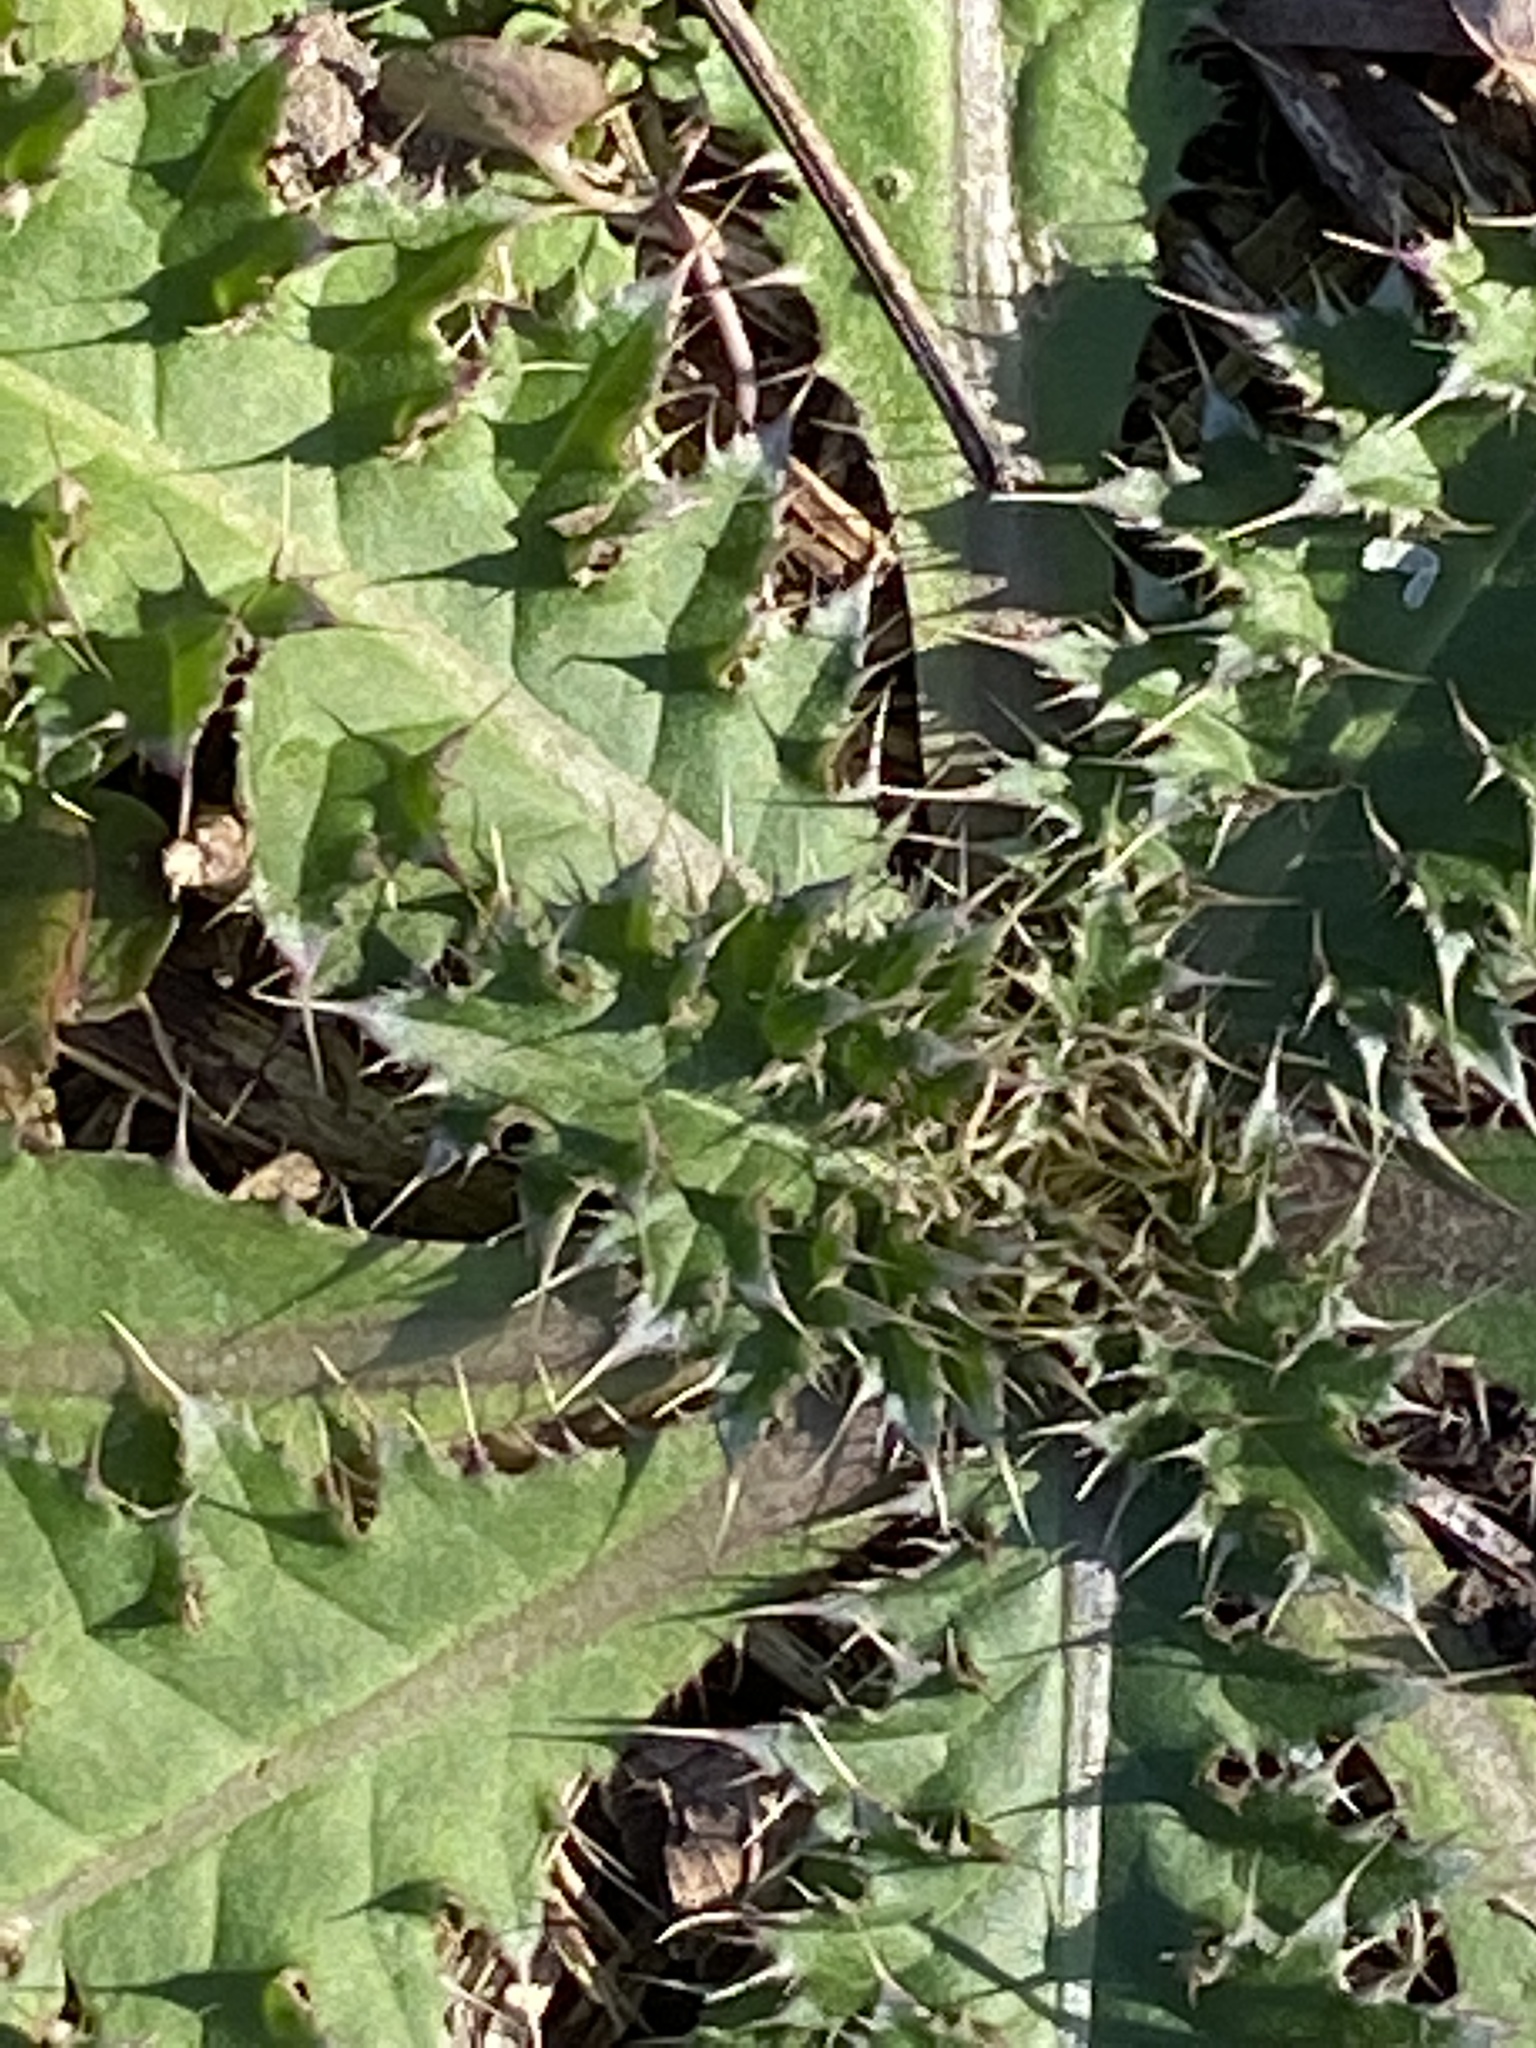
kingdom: Plantae
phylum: Tracheophyta
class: Magnoliopsida
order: Asterales
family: Asteraceae
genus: Carduus
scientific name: Carduus nutans
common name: Musk thistle
